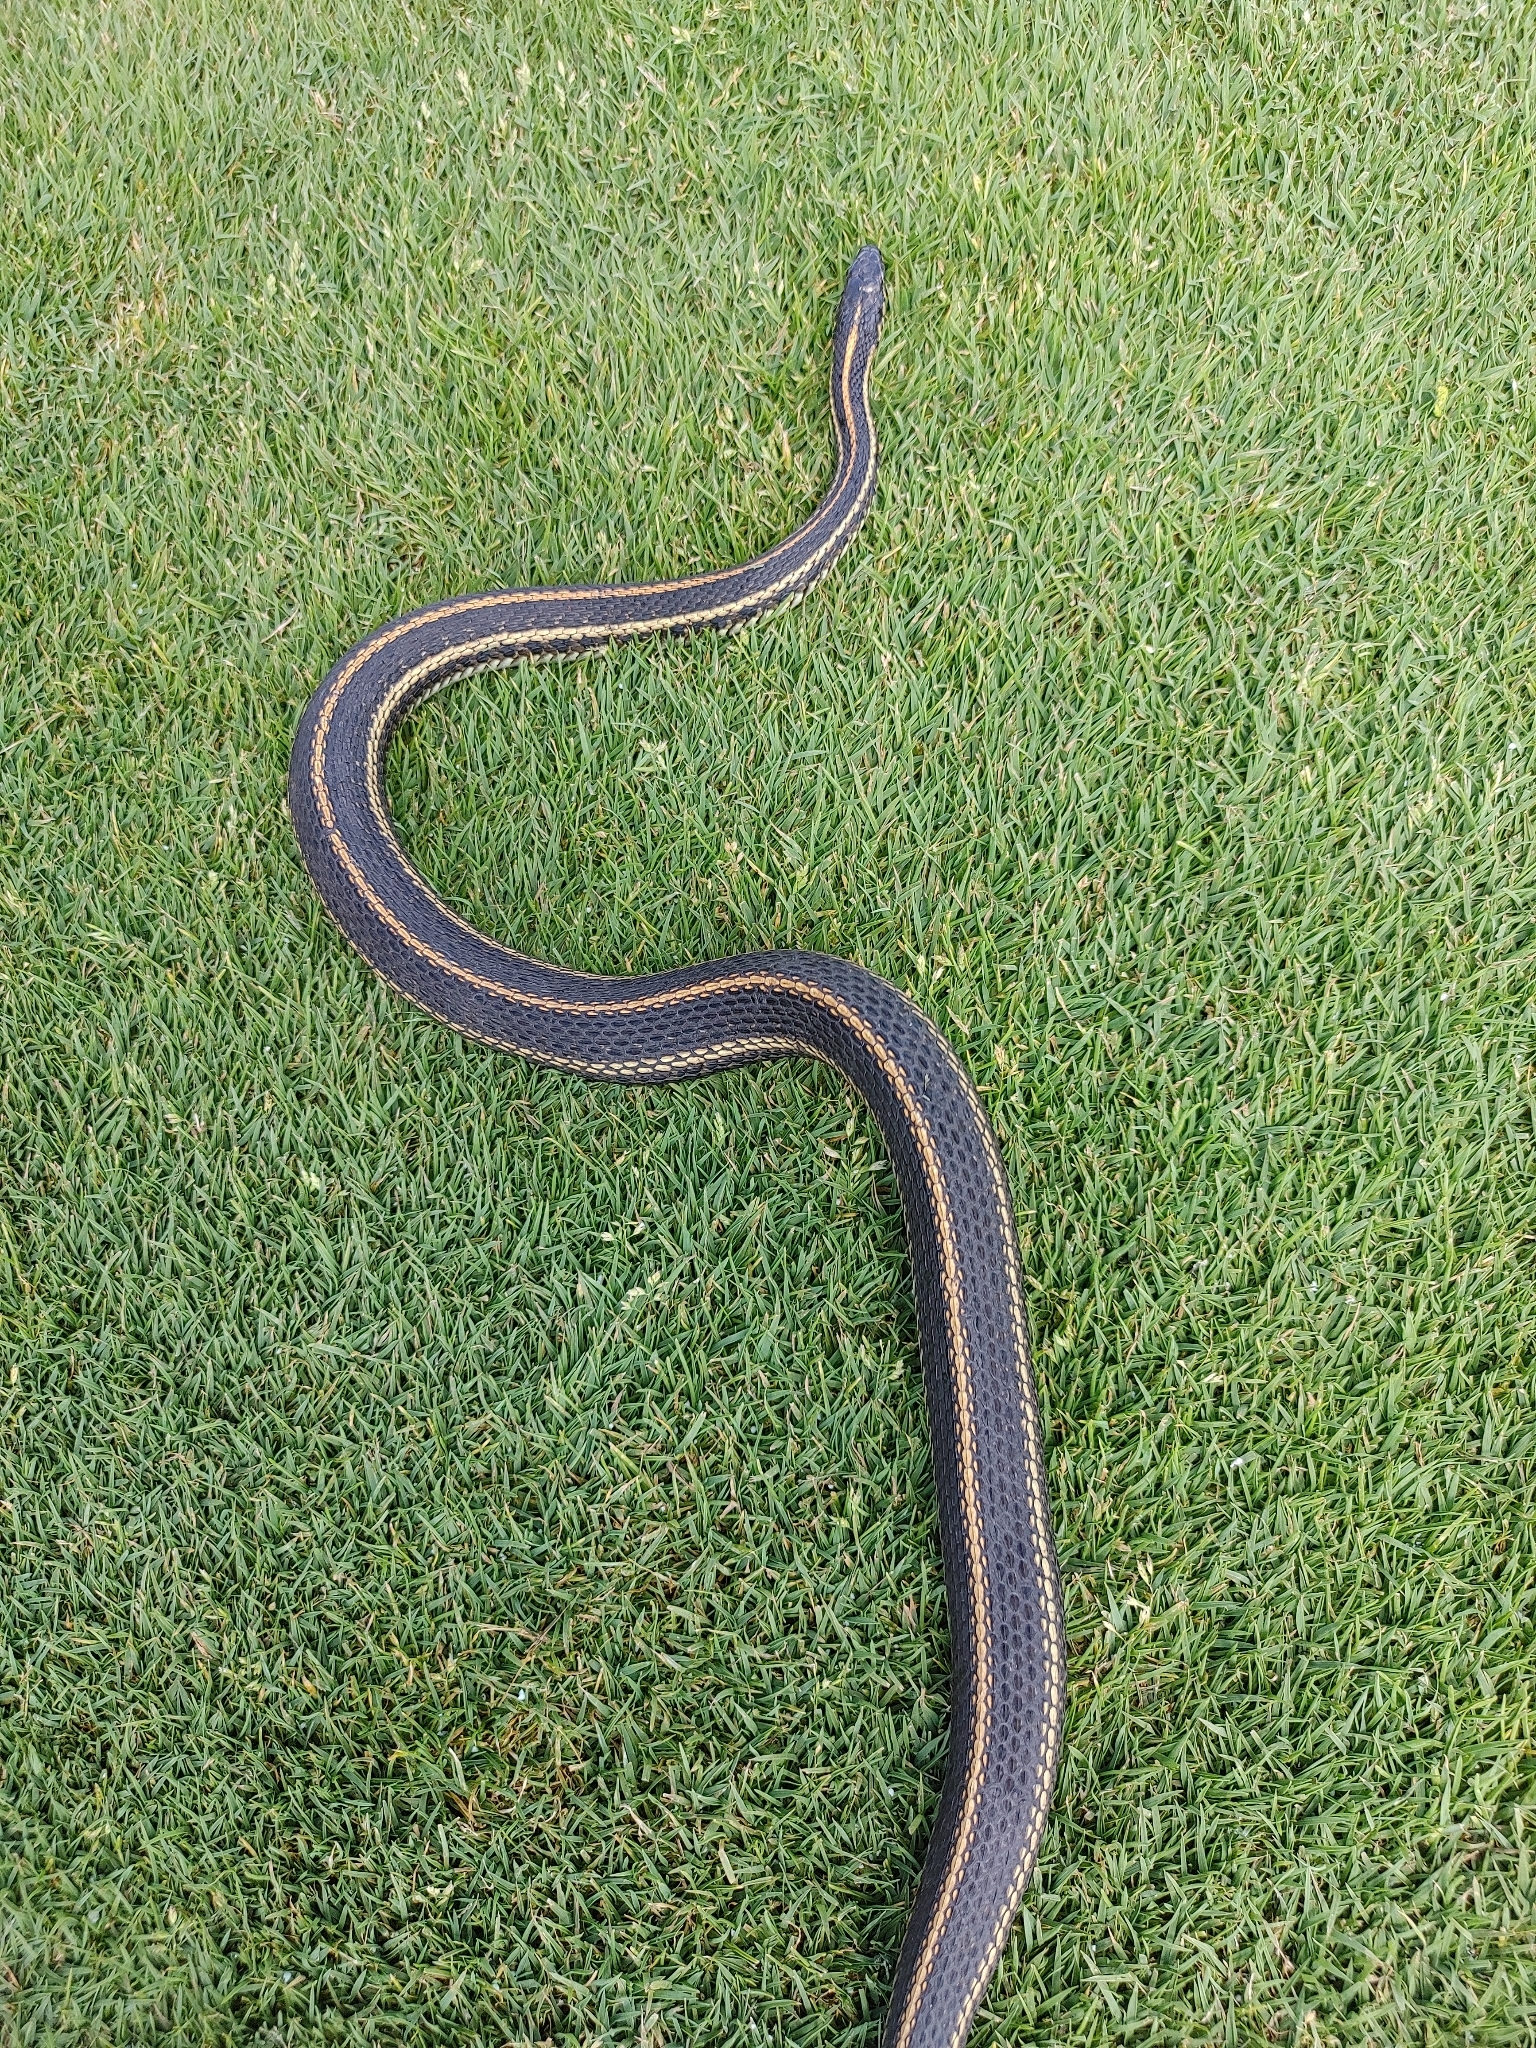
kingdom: Animalia
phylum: Chordata
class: Squamata
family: Colubridae
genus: Thamnophis
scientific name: Thamnophis radix
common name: Plains garter snake
